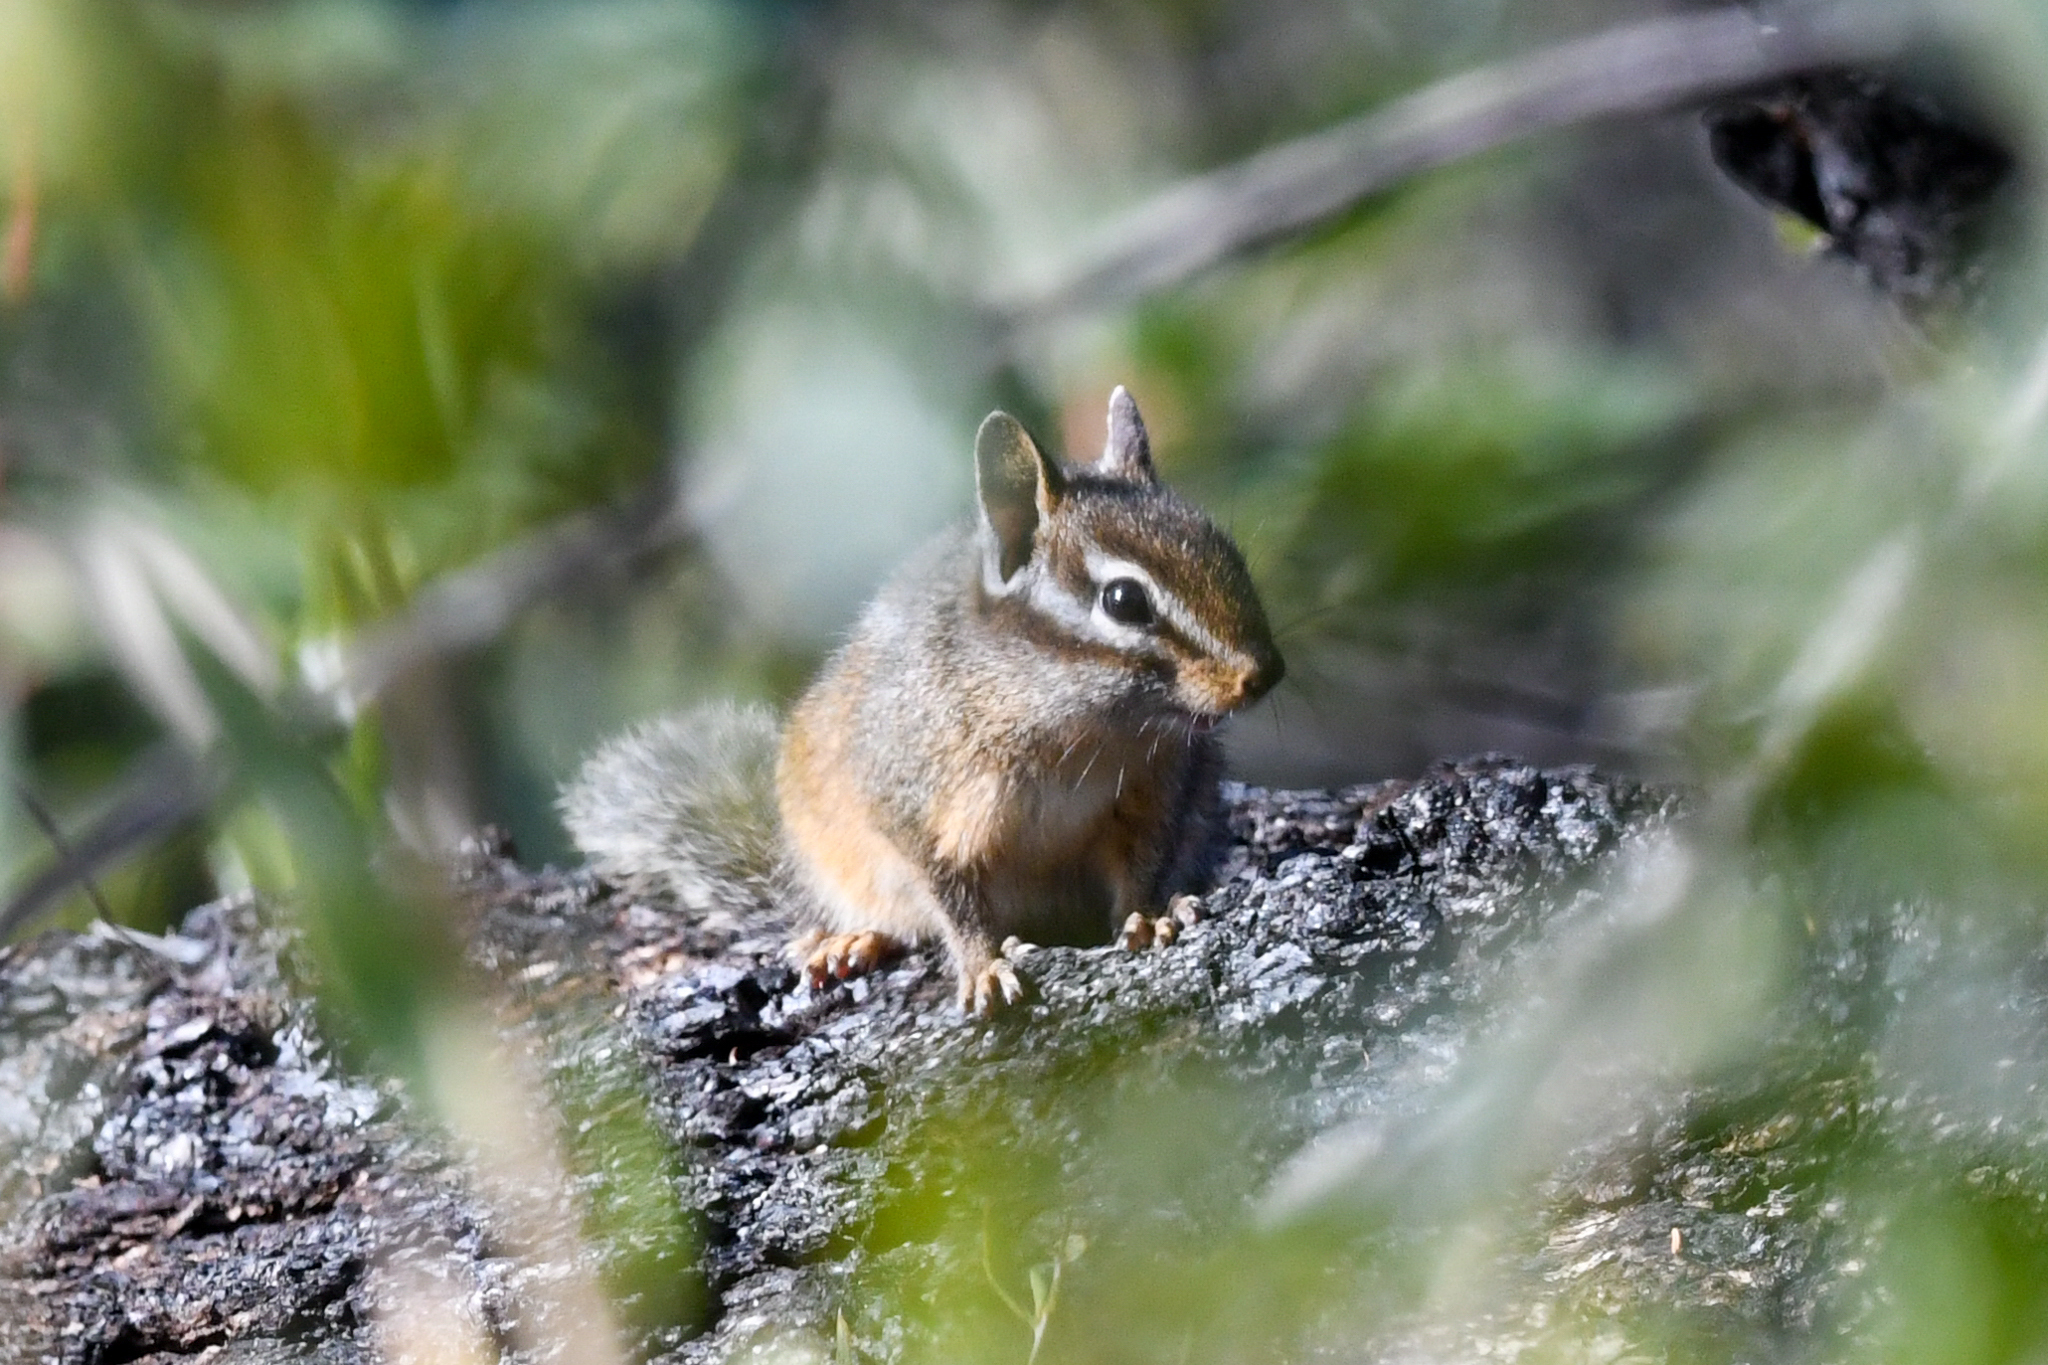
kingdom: Animalia
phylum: Chordata
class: Mammalia
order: Rodentia
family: Sciuridae
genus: Tamias
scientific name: Tamias merriami
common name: Merriam's chipmunk
